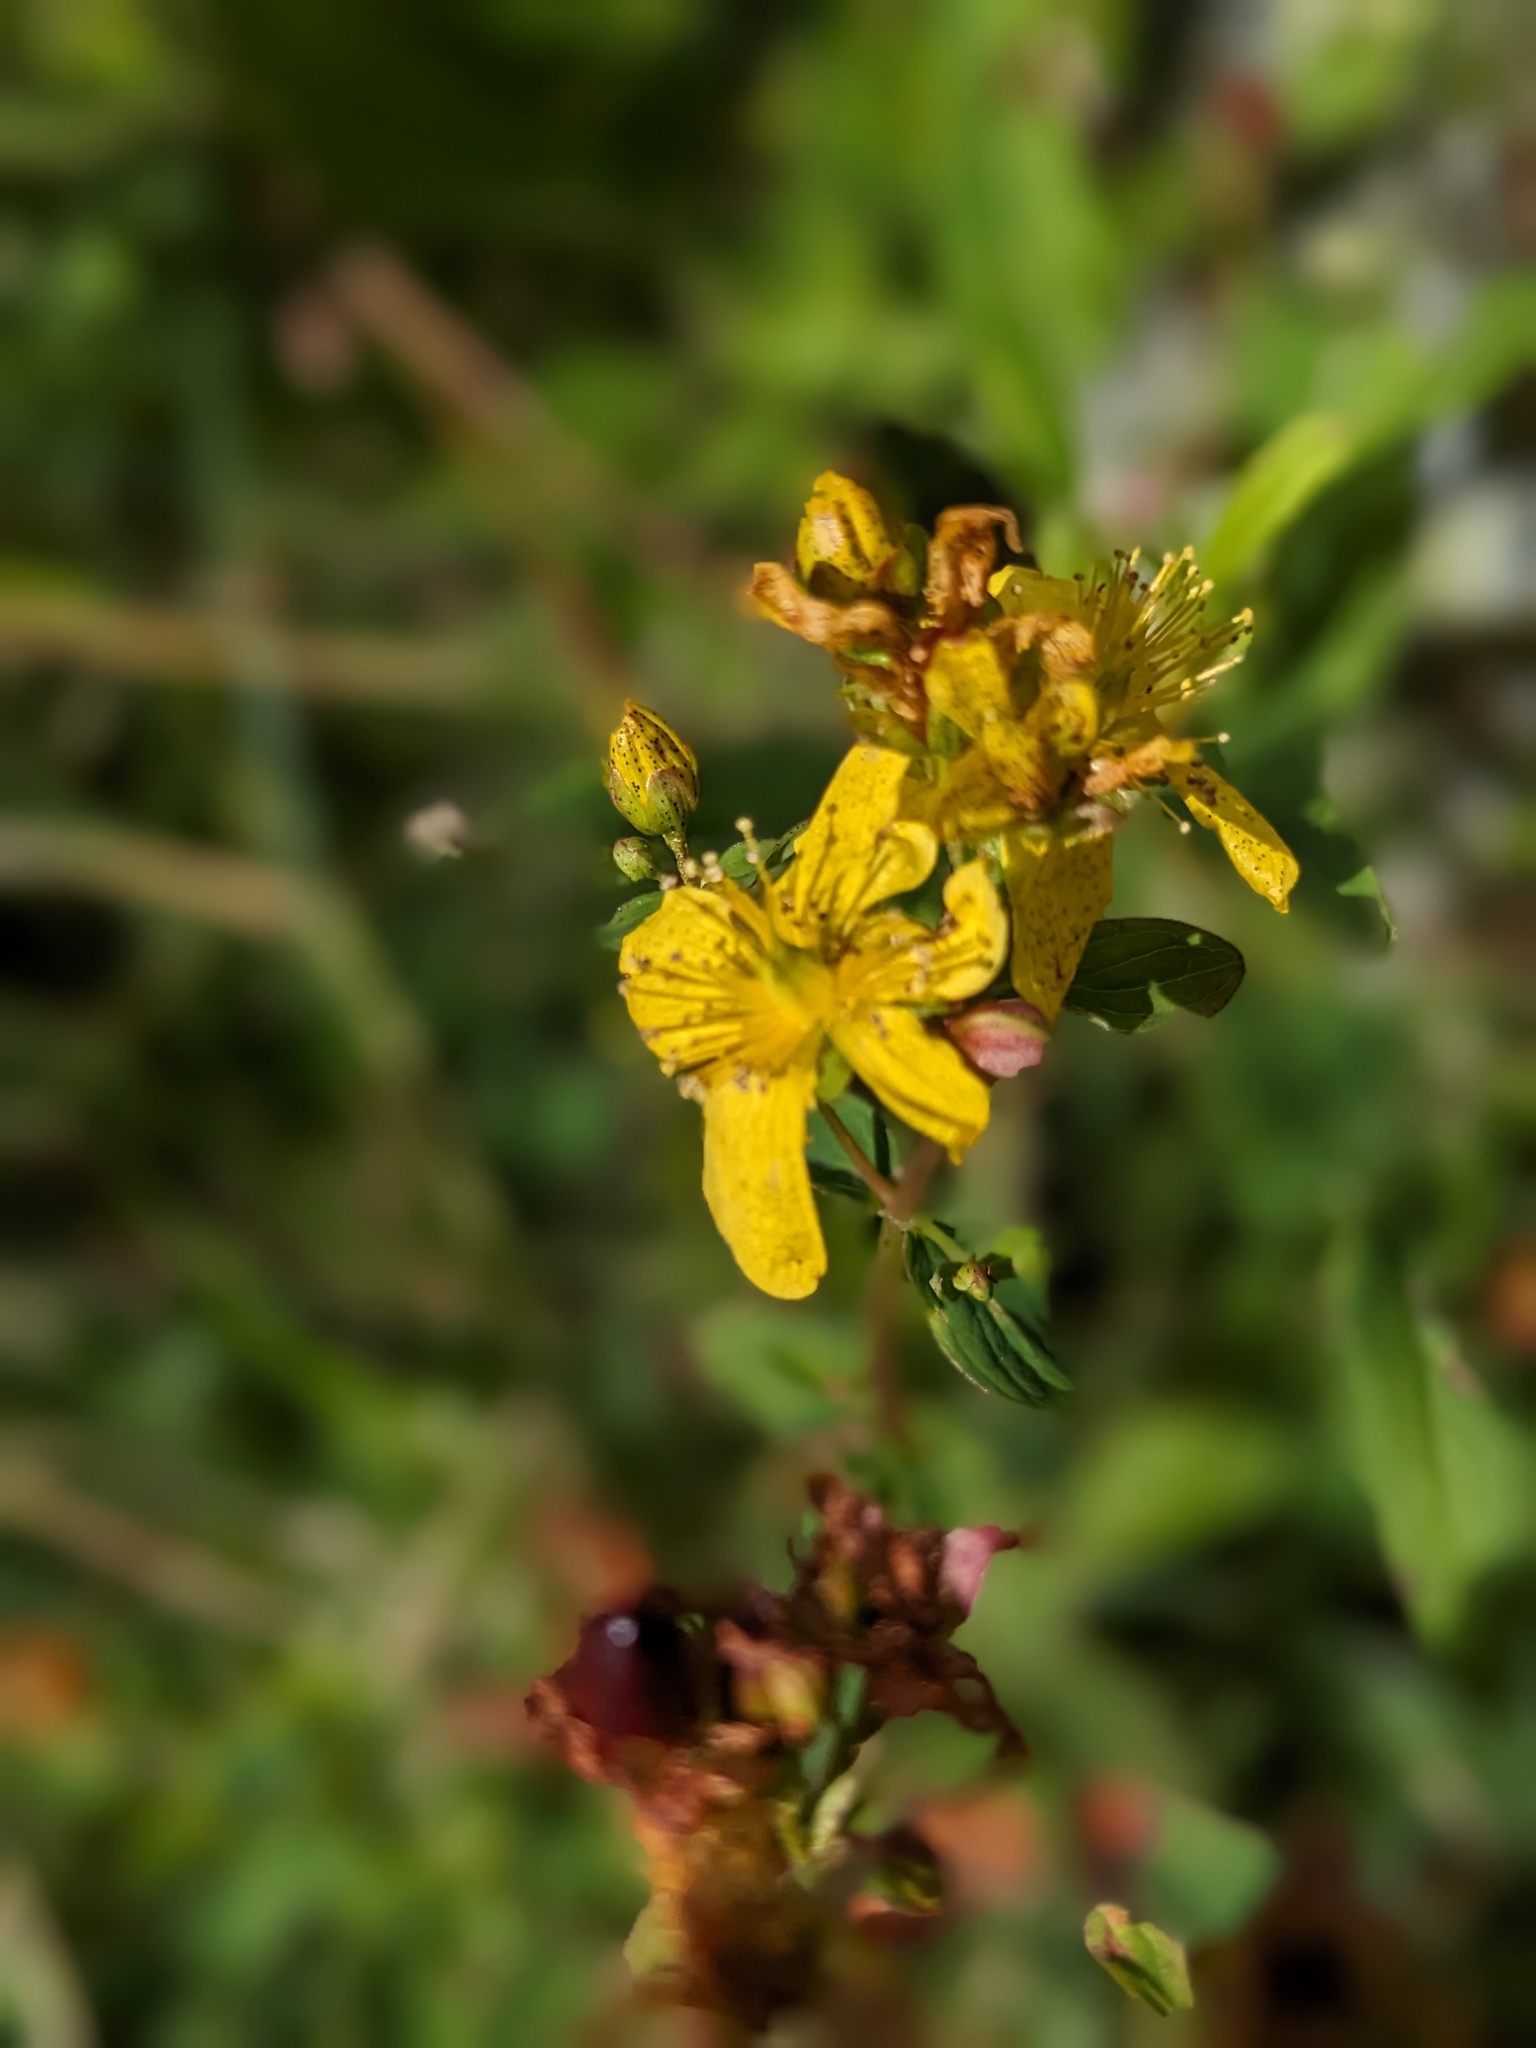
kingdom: Plantae
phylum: Tracheophyta
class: Magnoliopsida
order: Malpighiales
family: Hypericaceae
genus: Hypericum
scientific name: Hypericum maculatum
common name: Imperforate st. john's-wort
